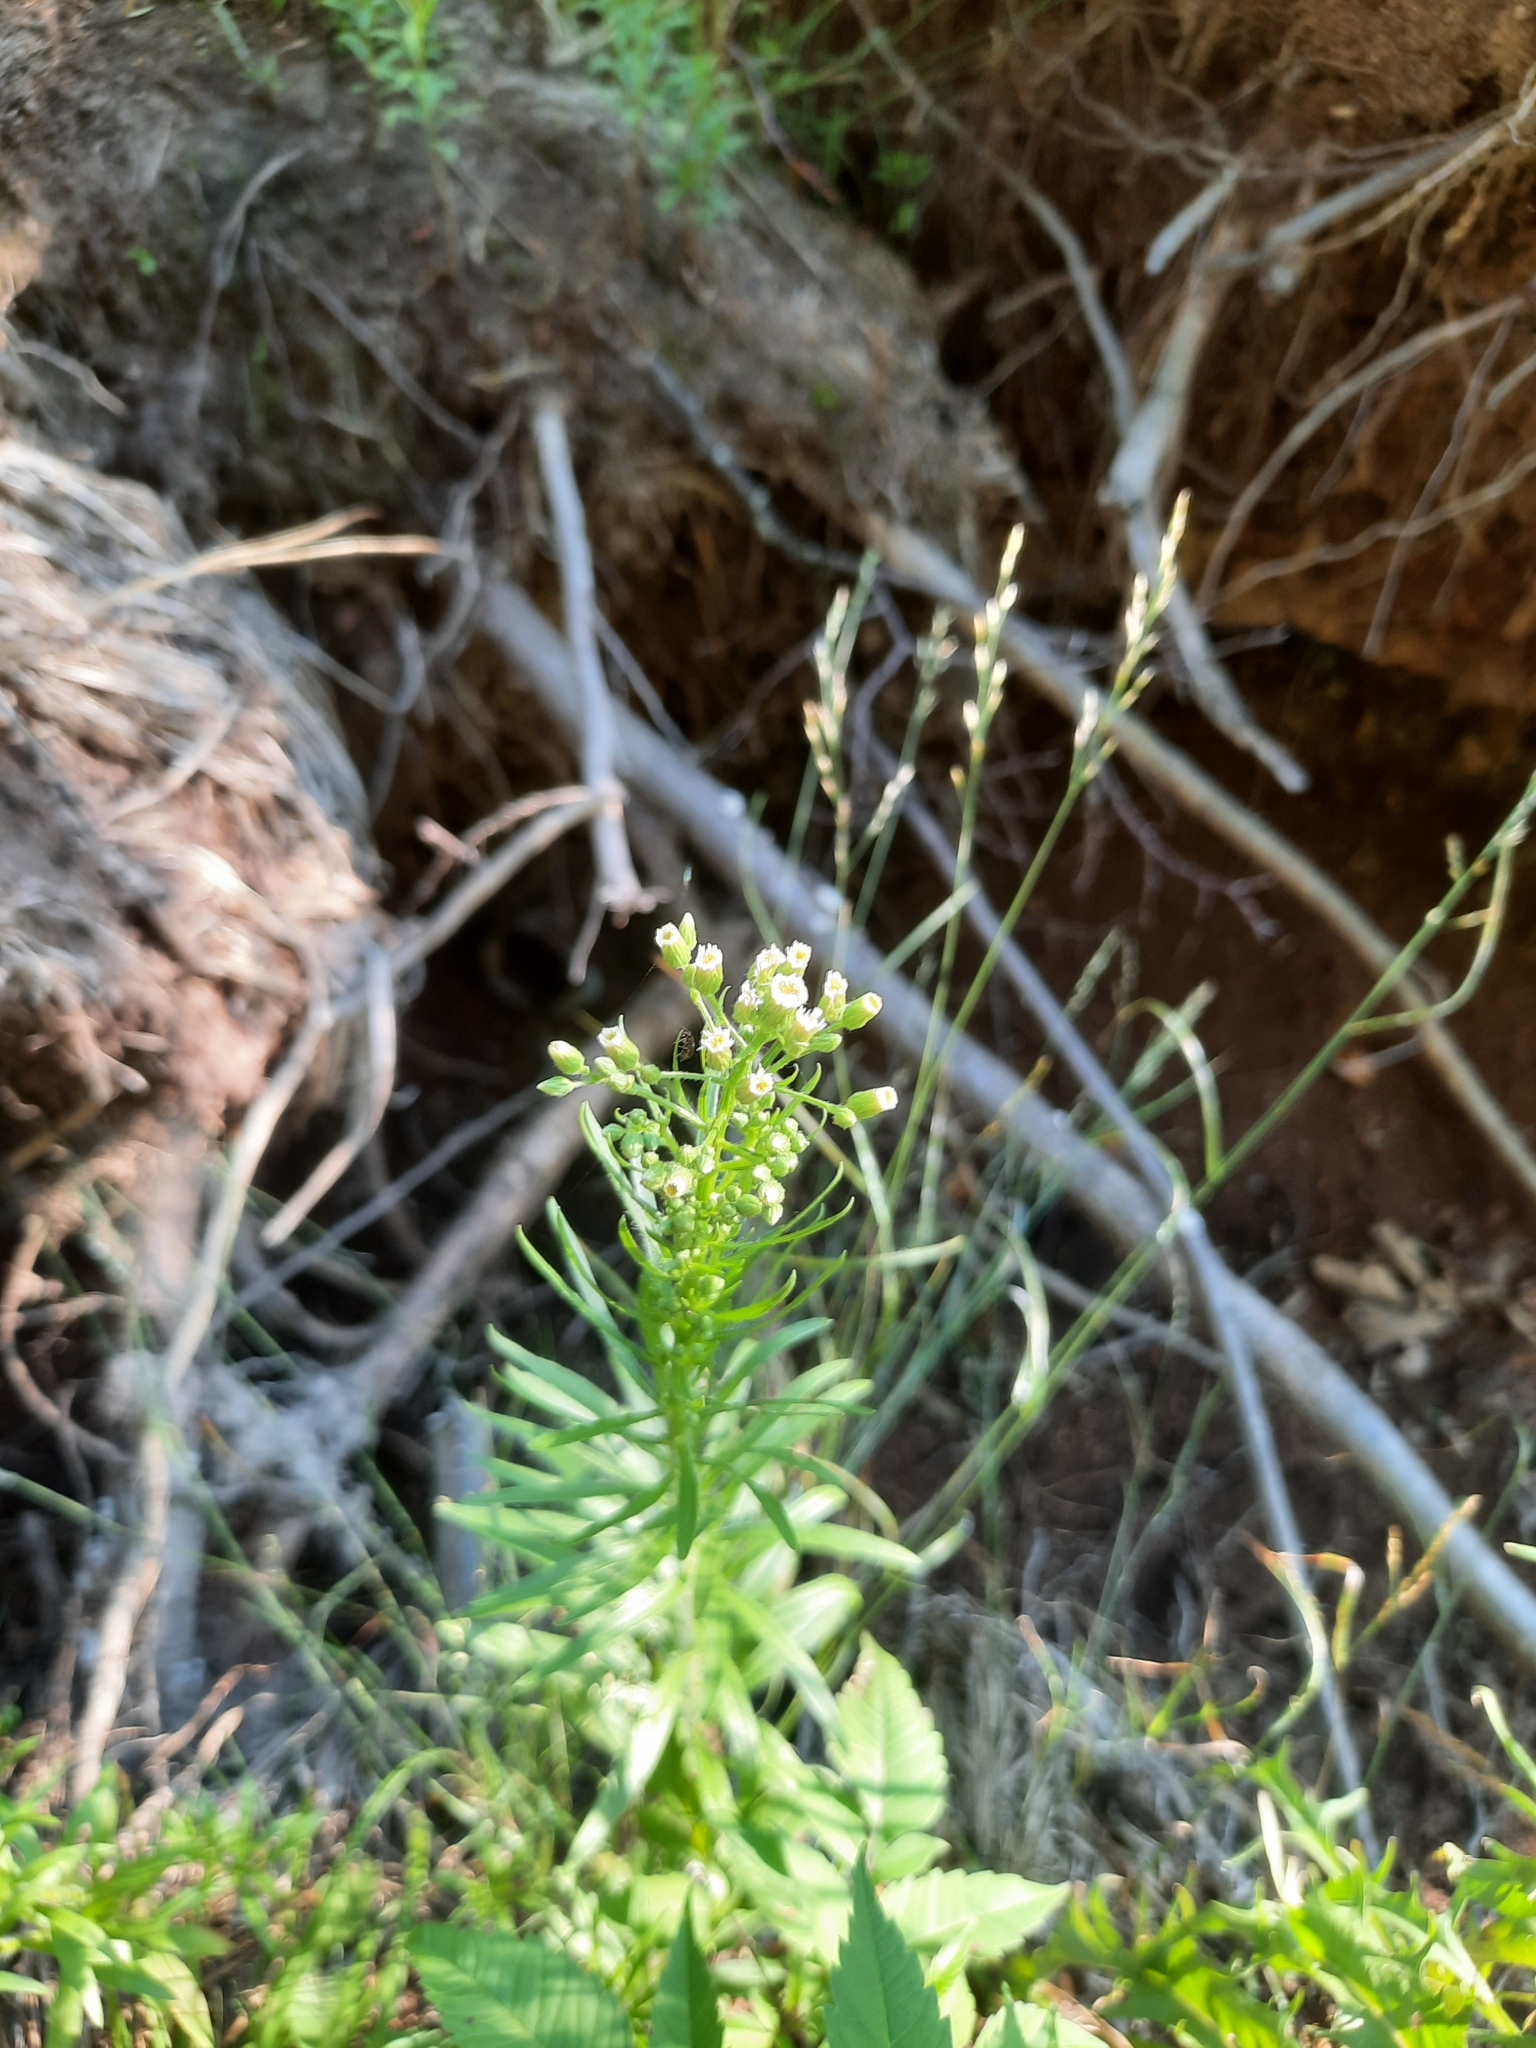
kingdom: Plantae
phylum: Tracheophyta
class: Magnoliopsida
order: Asterales
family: Asteraceae
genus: Erigeron
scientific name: Erigeron canadensis
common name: Canadian fleabane
